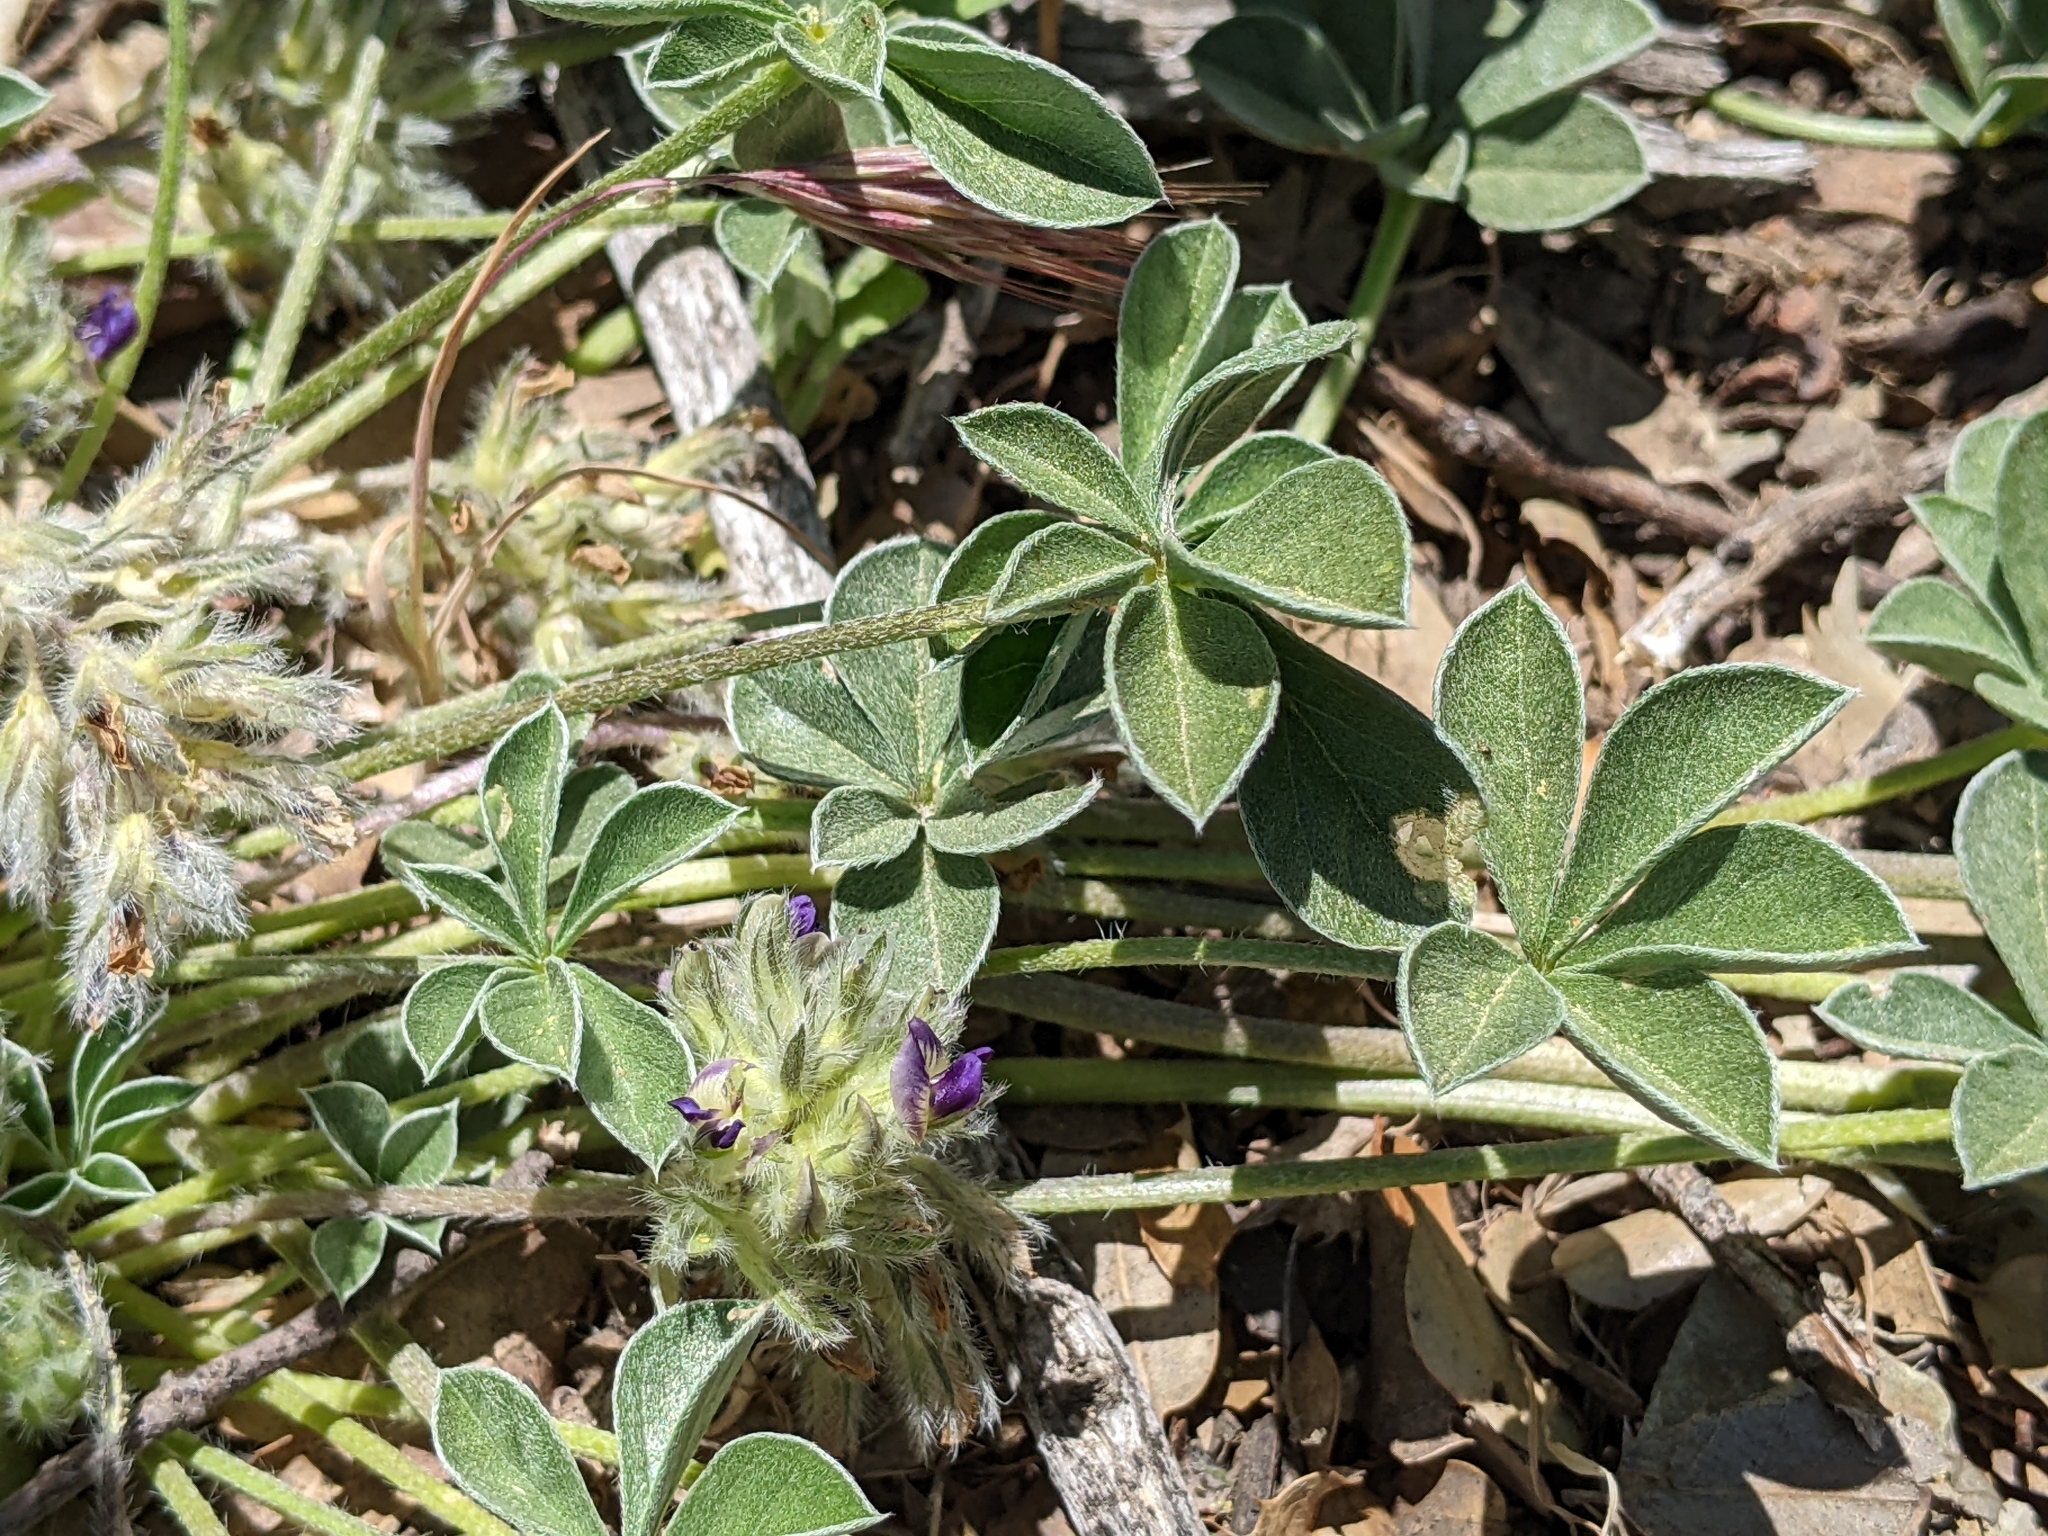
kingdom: Plantae
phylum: Tracheophyta
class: Magnoliopsida
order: Fabales
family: Fabaceae
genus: Pediomelum
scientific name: Pediomelum californicum
